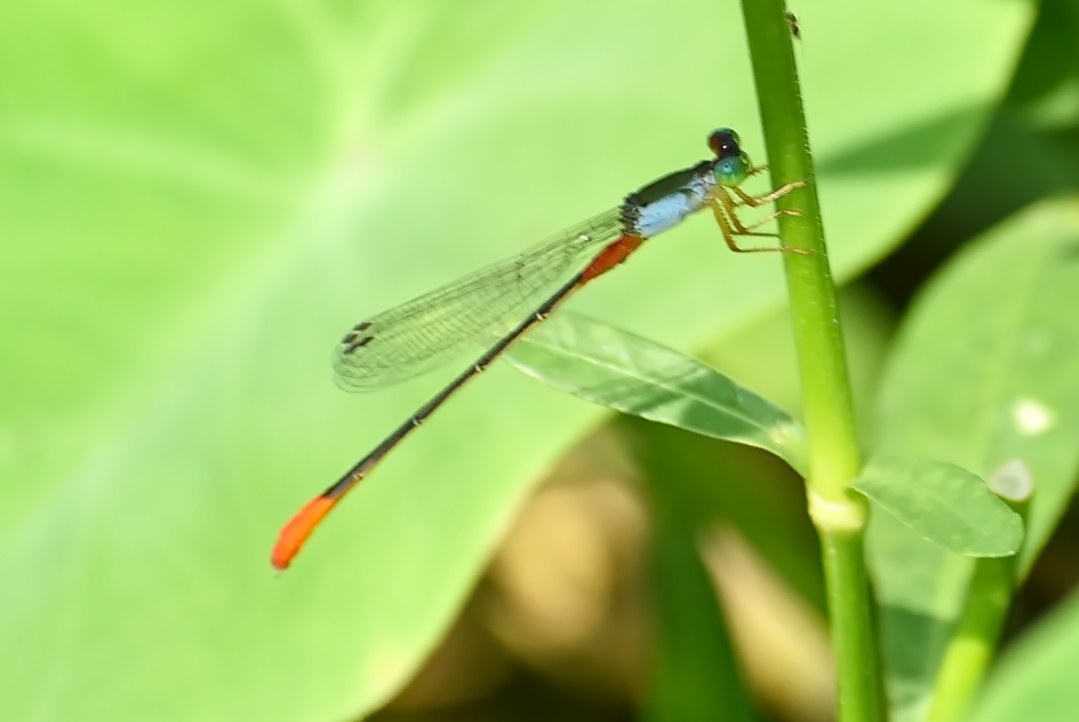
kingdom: Animalia
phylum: Arthropoda
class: Insecta
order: Odonata
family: Coenagrionidae
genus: Ceriagrion
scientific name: Ceriagrion cerinorubellum
